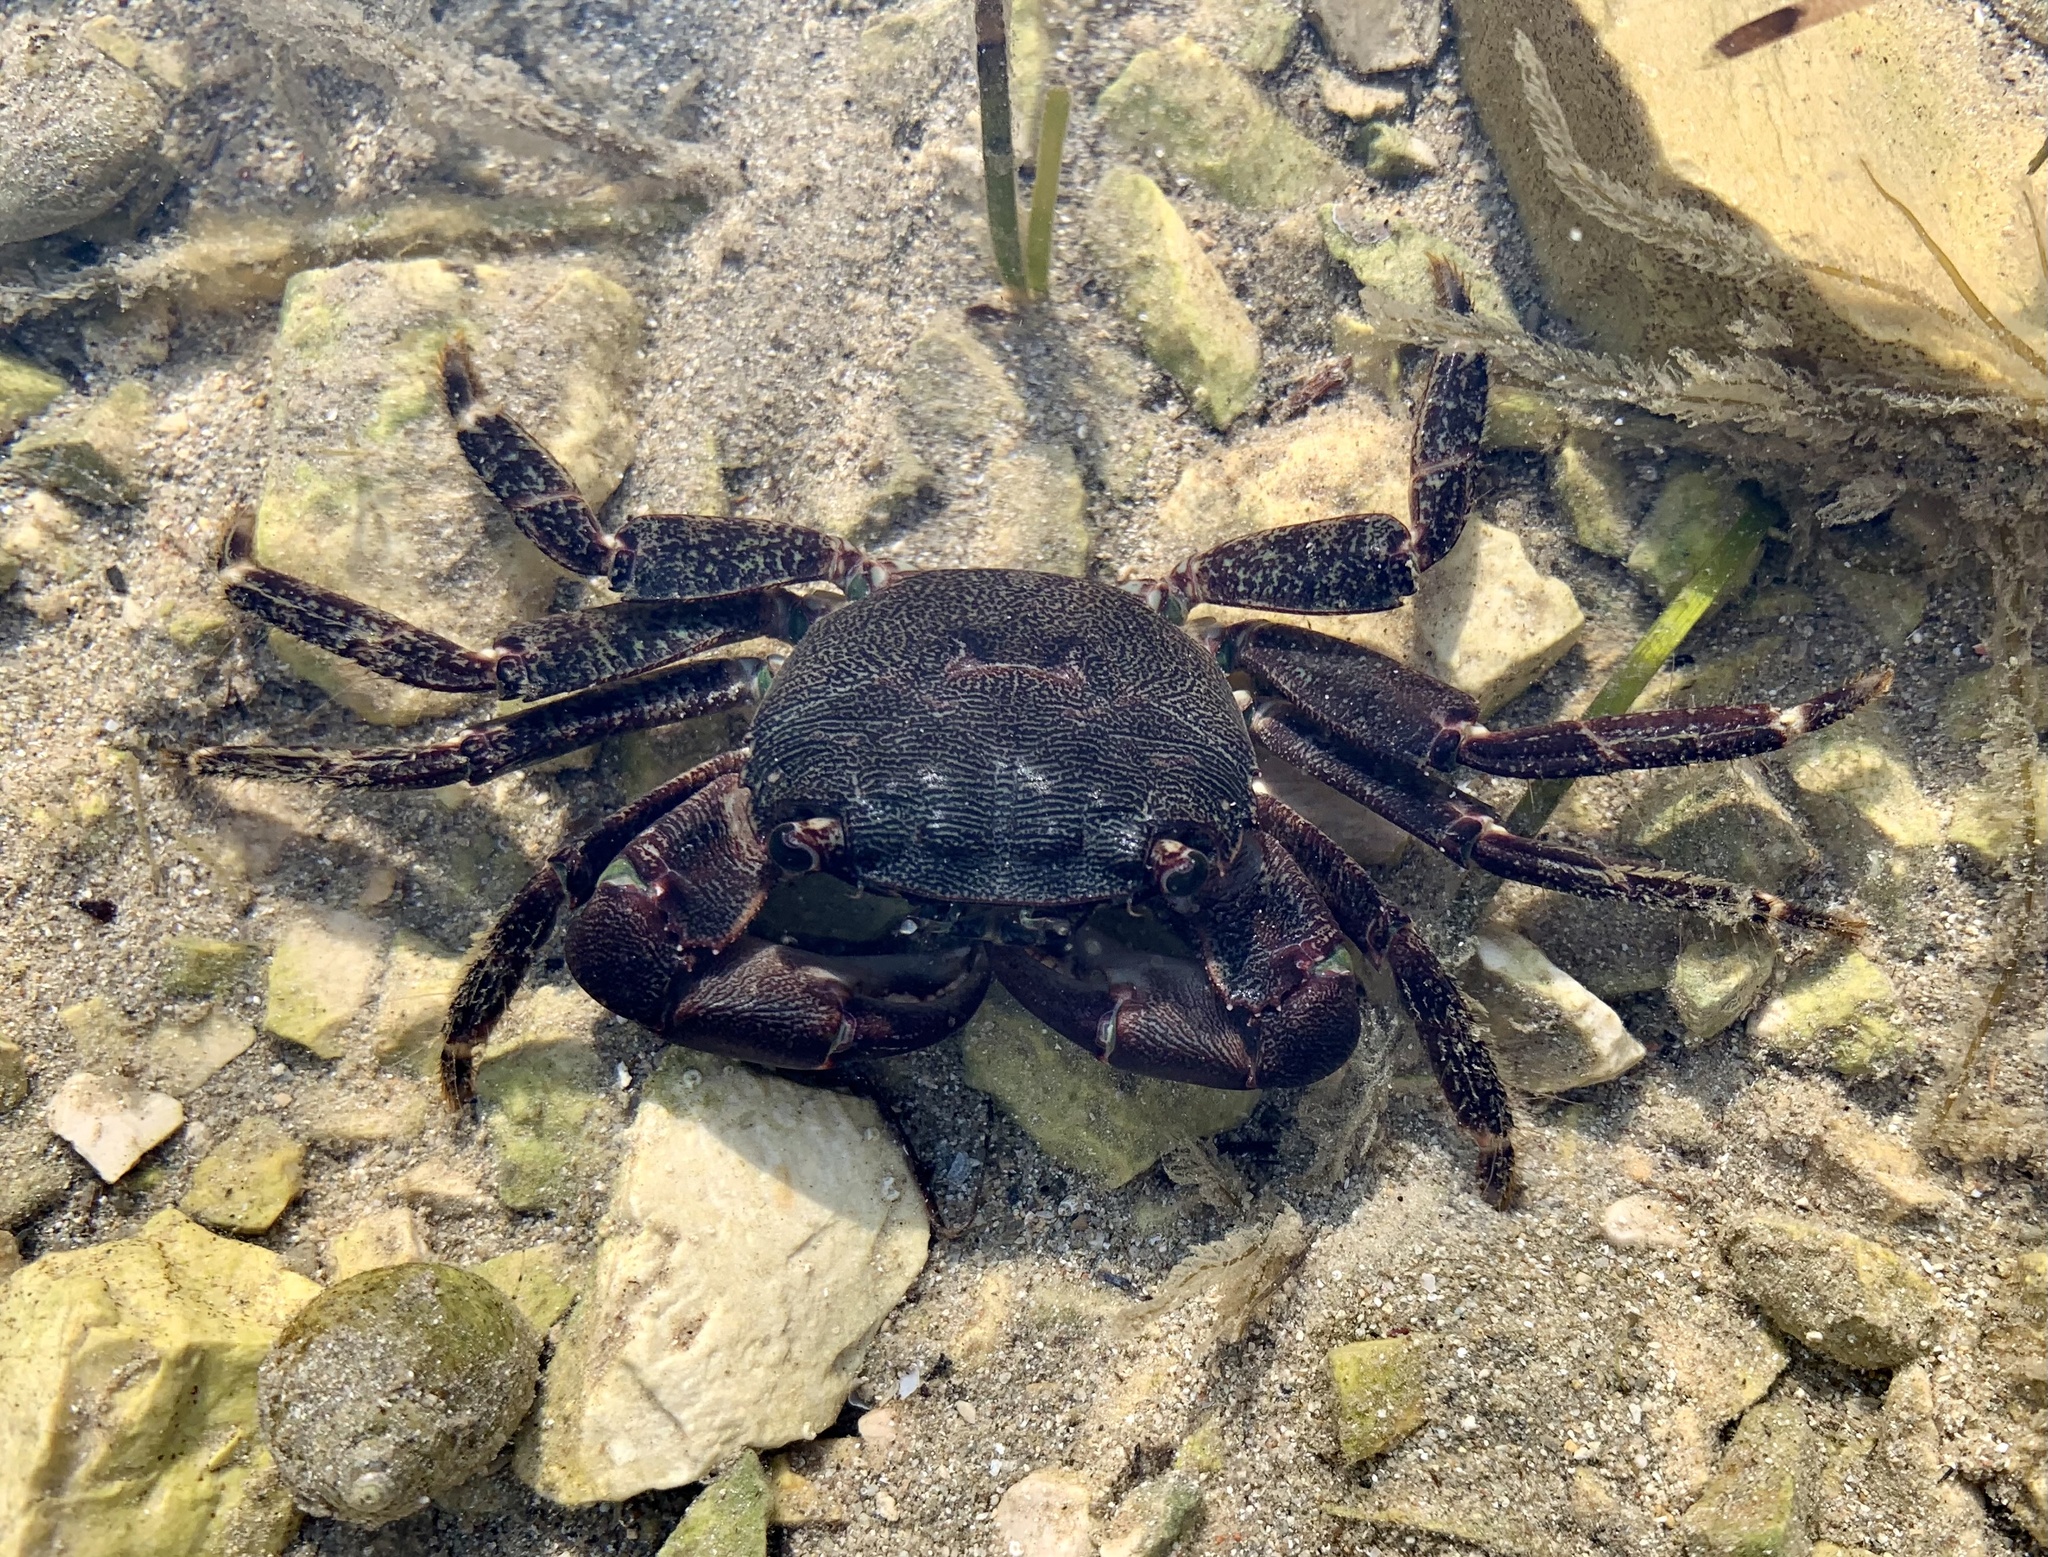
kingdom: Animalia
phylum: Arthropoda
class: Malacostraca
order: Decapoda
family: Grapsidae
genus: Pachygrapsus
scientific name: Pachygrapsus marmoratus
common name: Marbled rock crab
